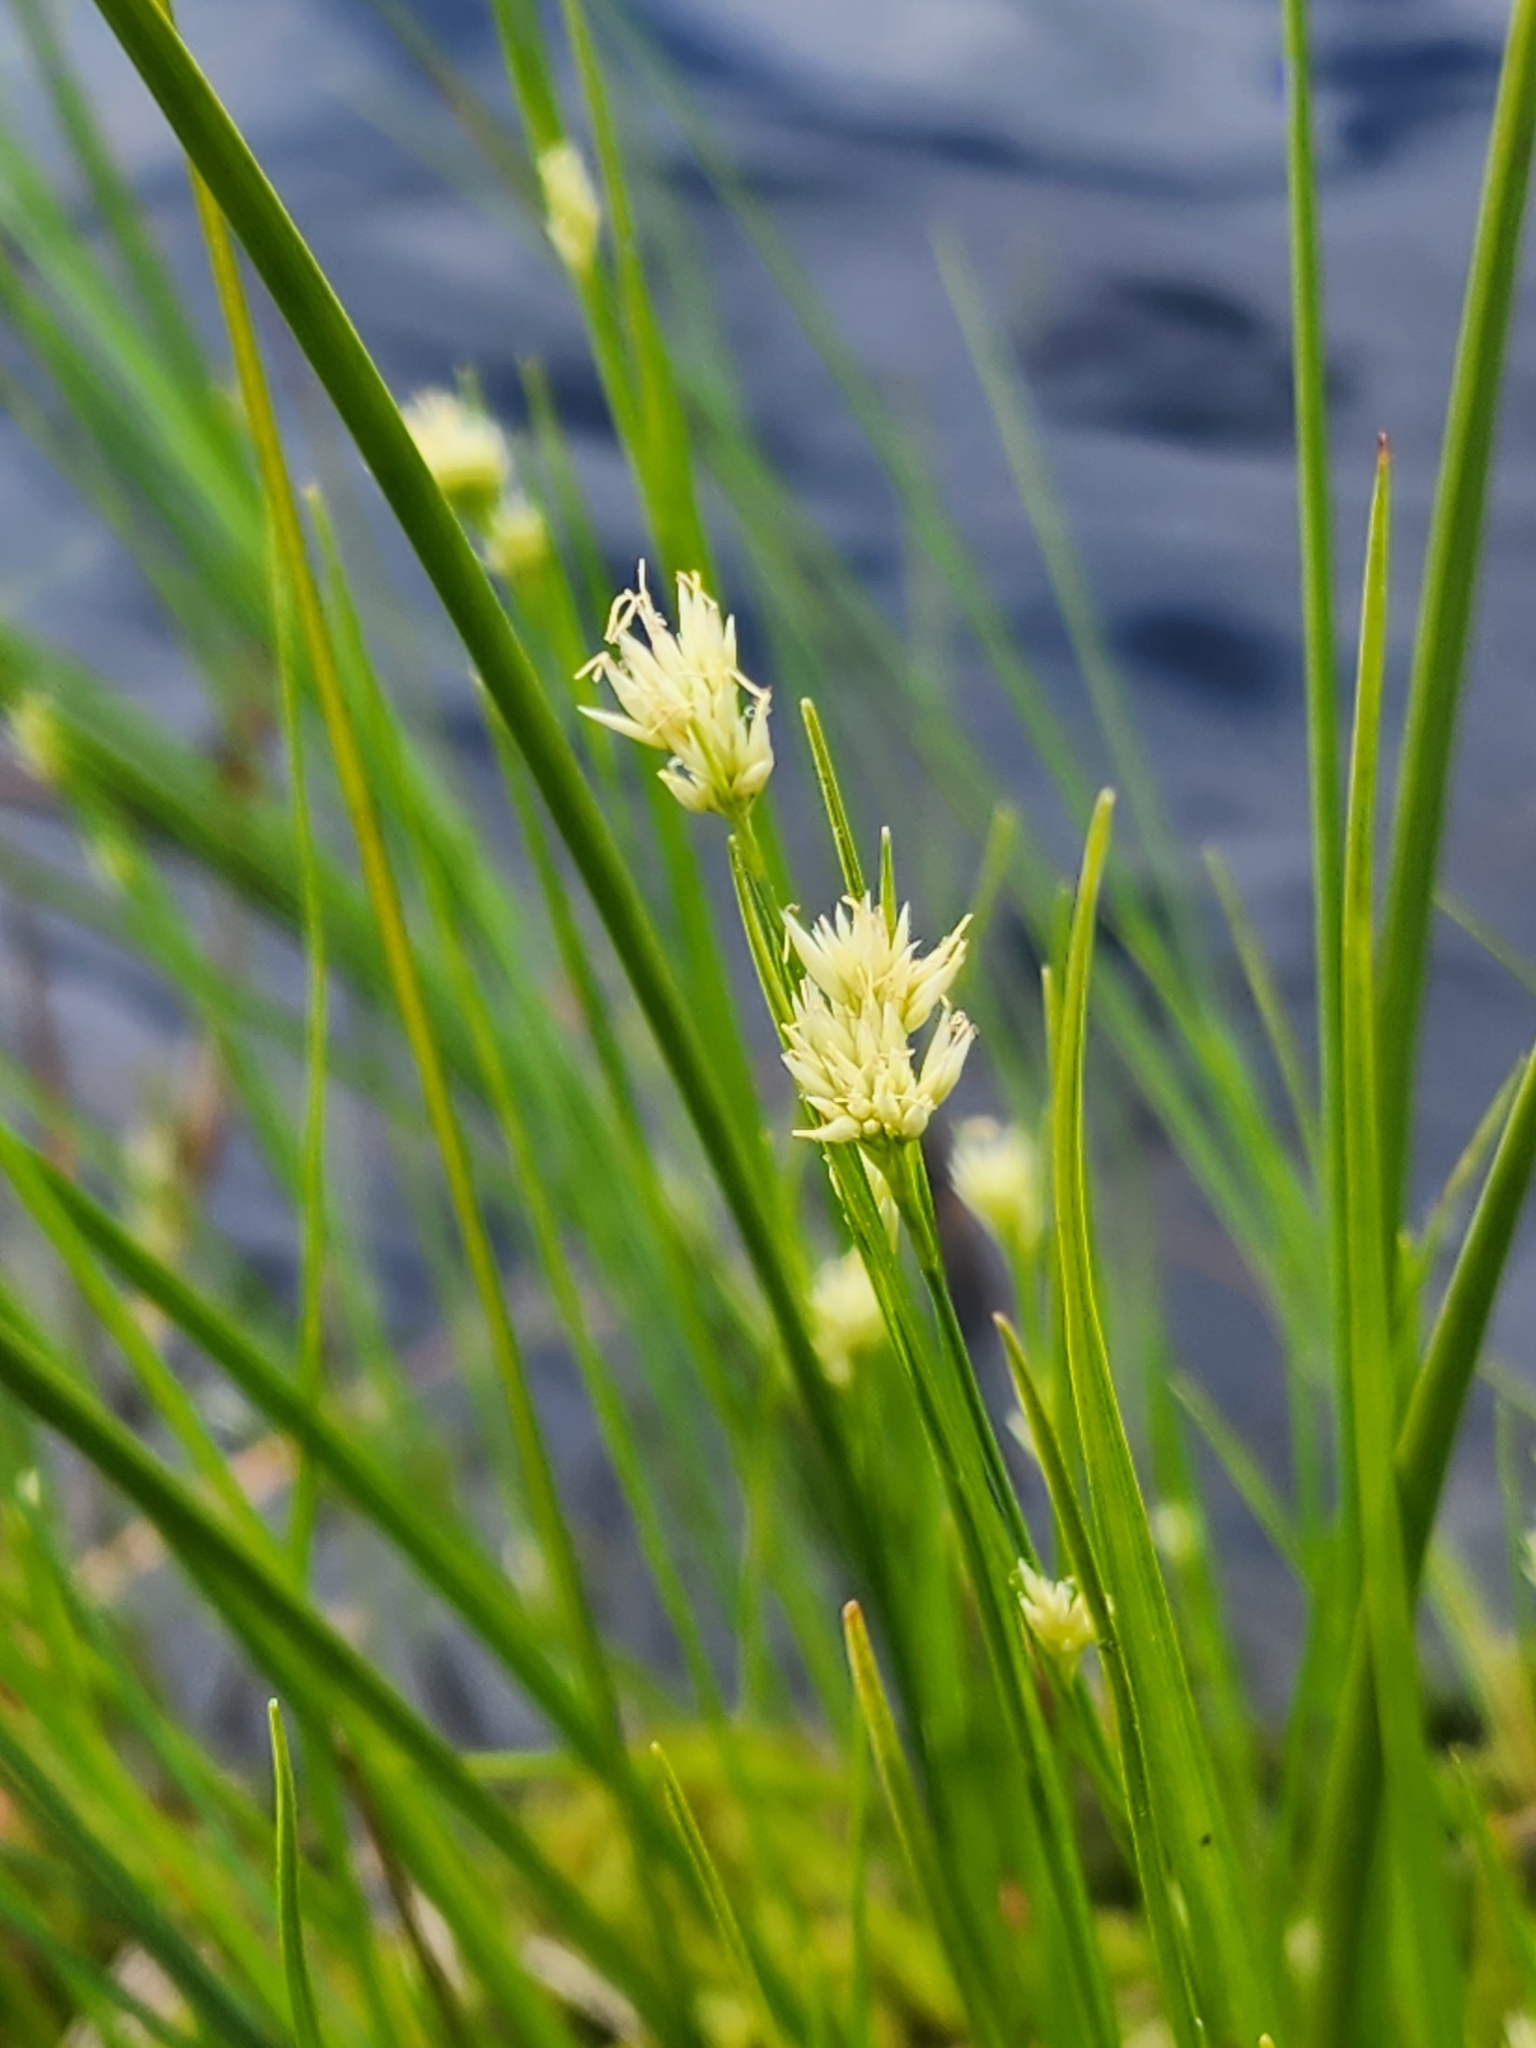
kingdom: Plantae
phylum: Tracheophyta
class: Liliopsida
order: Poales
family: Cyperaceae
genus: Rhynchospora
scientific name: Rhynchospora alba
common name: White beak-sedge
